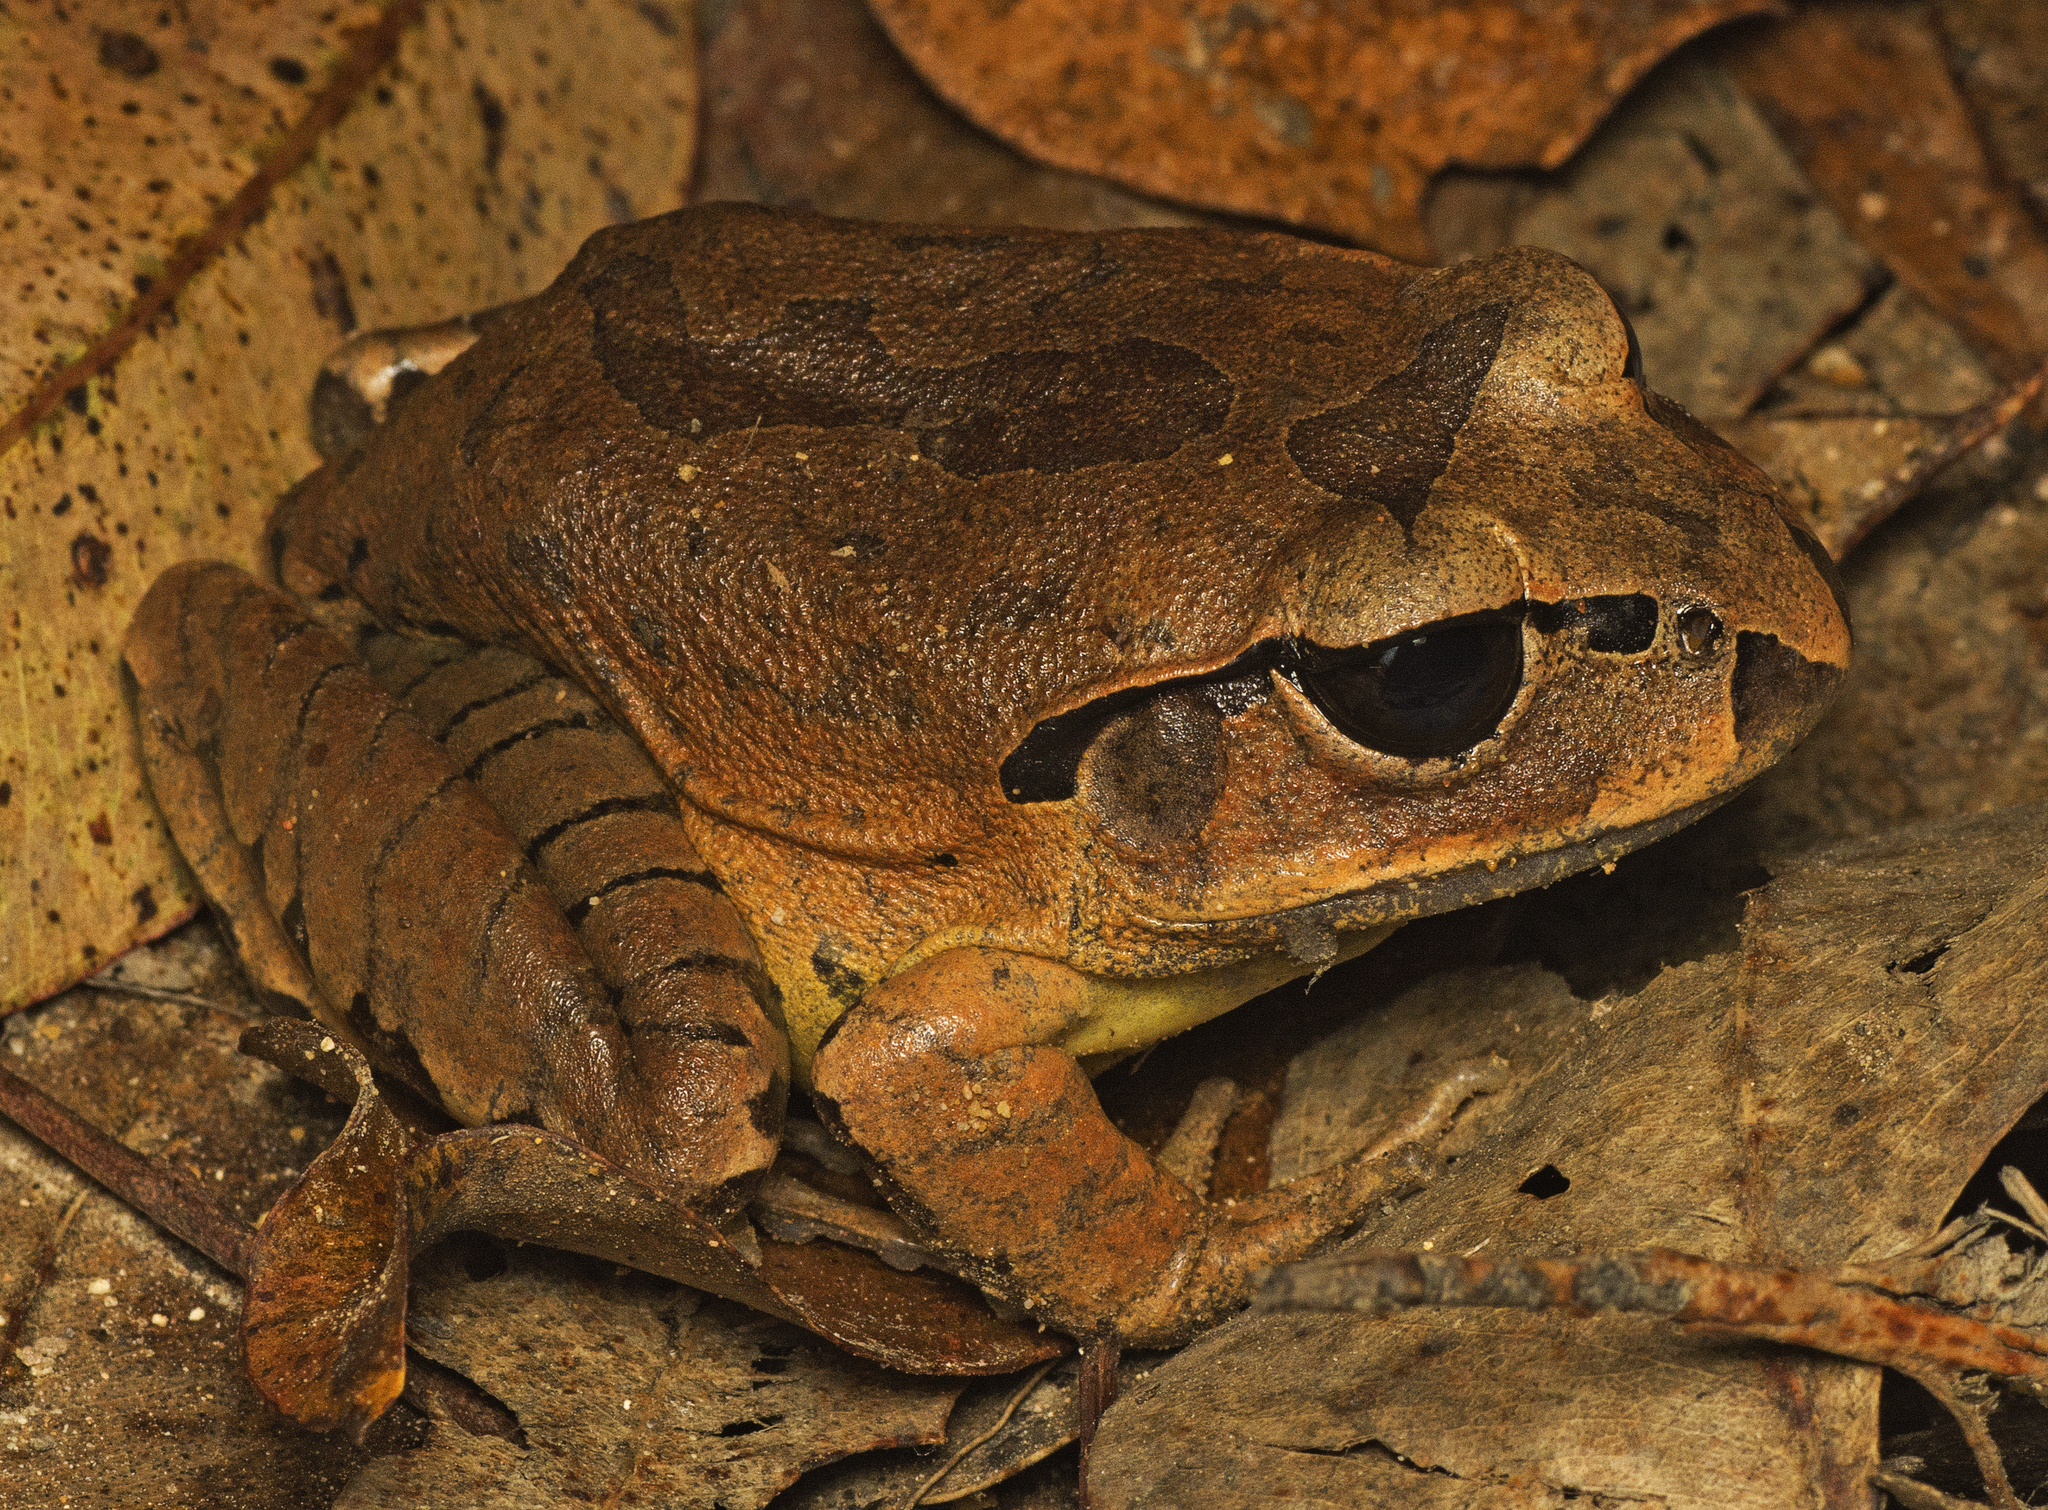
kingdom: Animalia
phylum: Chordata
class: Amphibia
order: Anura
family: Myobatrachidae
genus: Mixophyes
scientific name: Mixophyes fasciolatus
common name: Great barred river-frog
